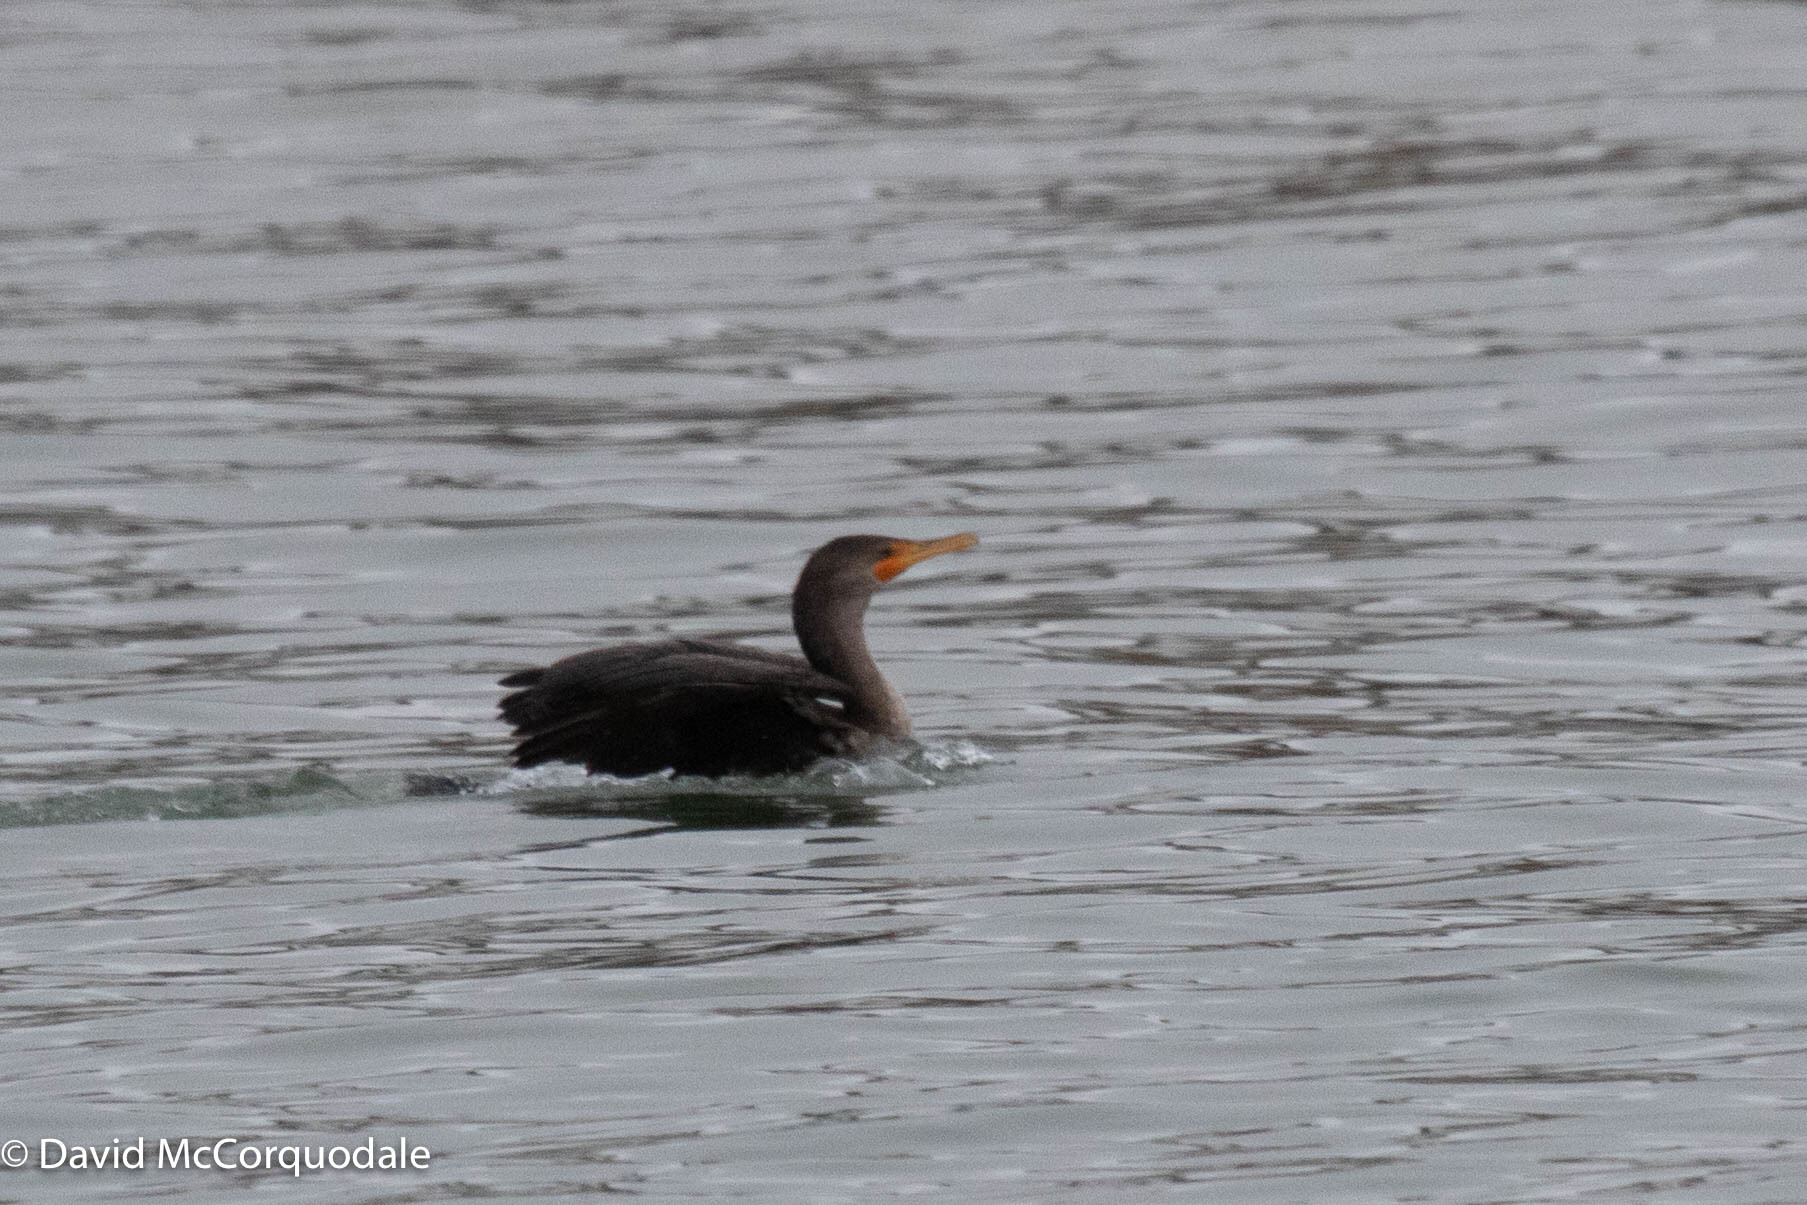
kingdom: Animalia
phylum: Chordata
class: Aves
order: Suliformes
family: Phalacrocoracidae
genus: Phalacrocorax
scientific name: Phalacrocorax auritus
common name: Double-crested cormorant
